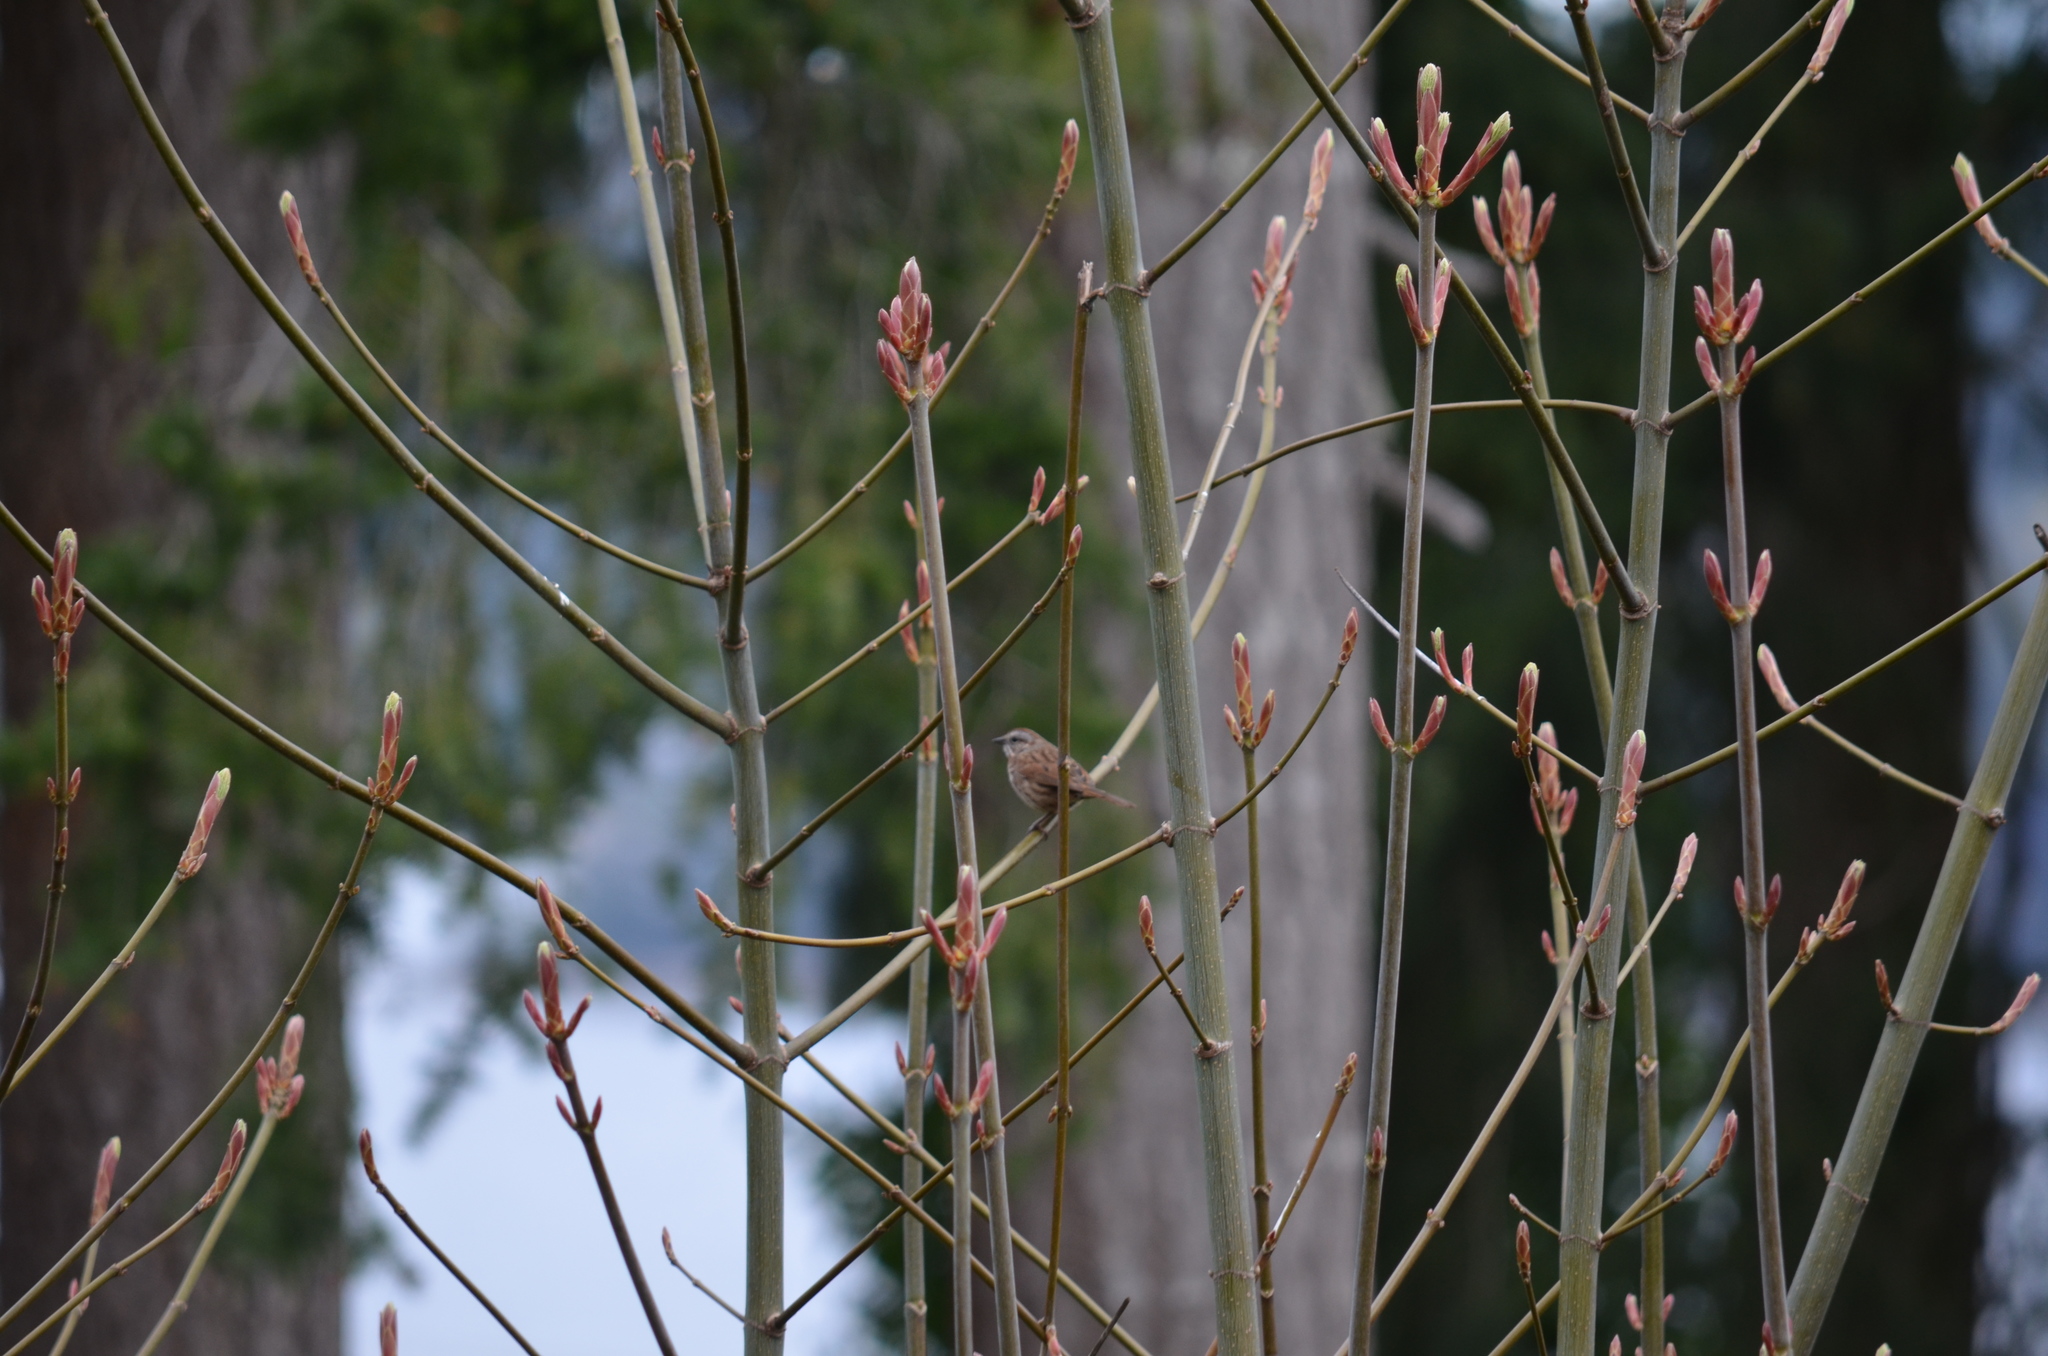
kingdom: Animalia
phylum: Chordata
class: Aves
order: Passeriformes
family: Passerellidae
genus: Melospiza
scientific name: Melospiza melodia
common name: Song sparrow
